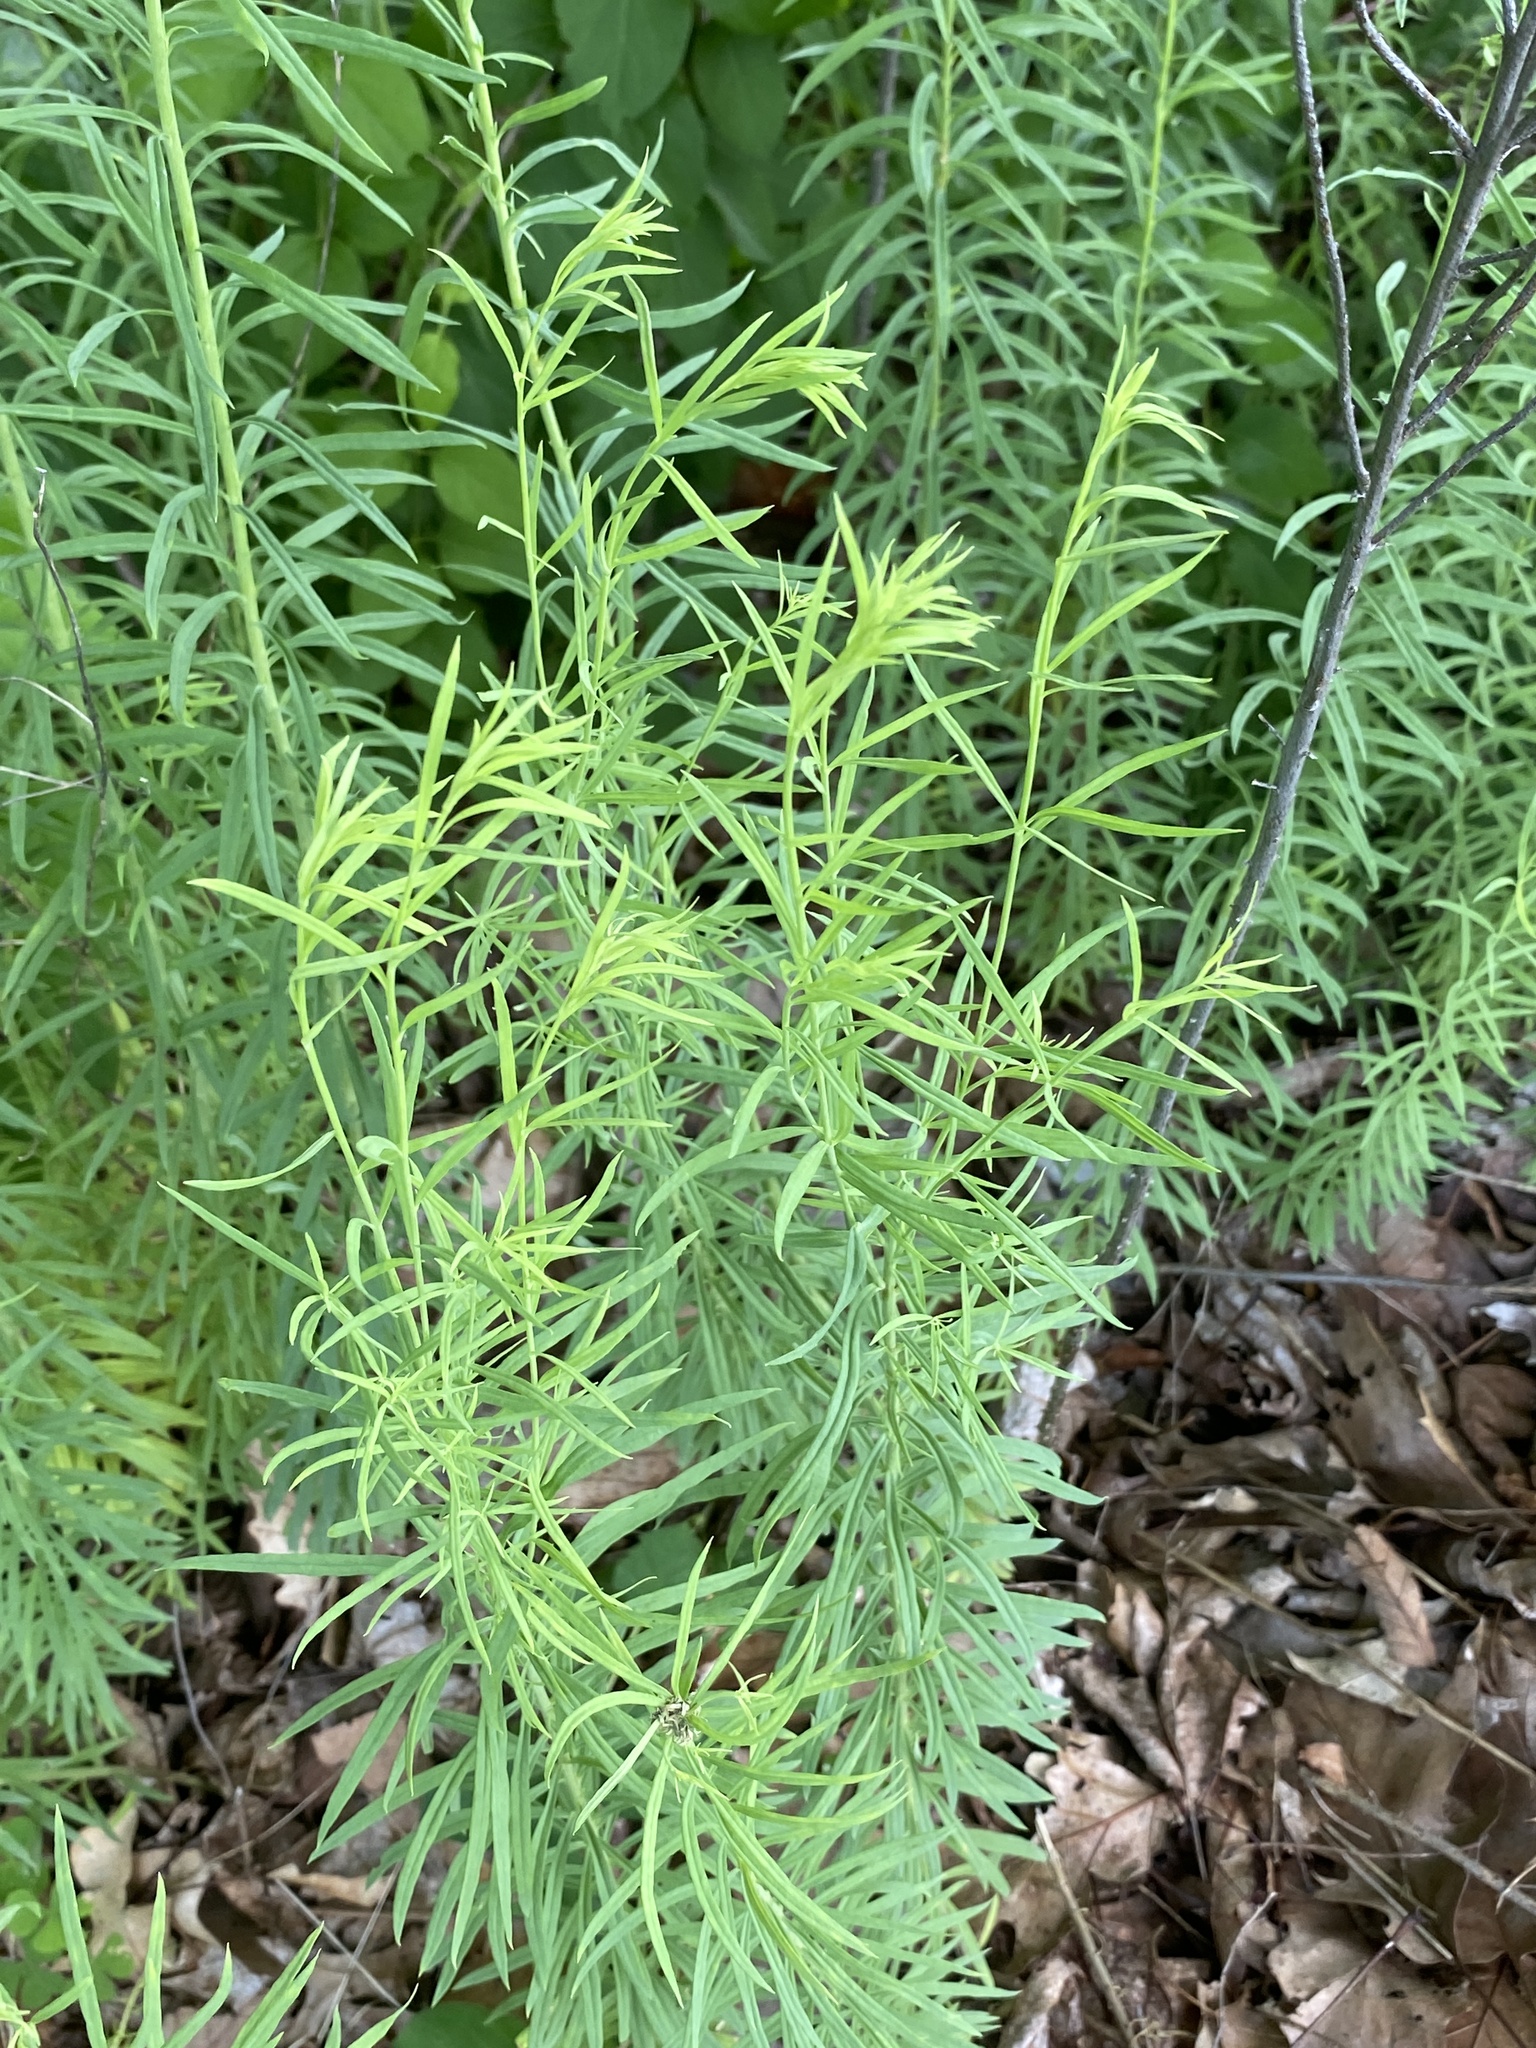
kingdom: Plantae
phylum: Tracheophyta
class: Magnoliopsida
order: Lamiales
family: Plantaginaceae
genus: Linaria
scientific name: Linaria vulgaris
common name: Butter and eggs
